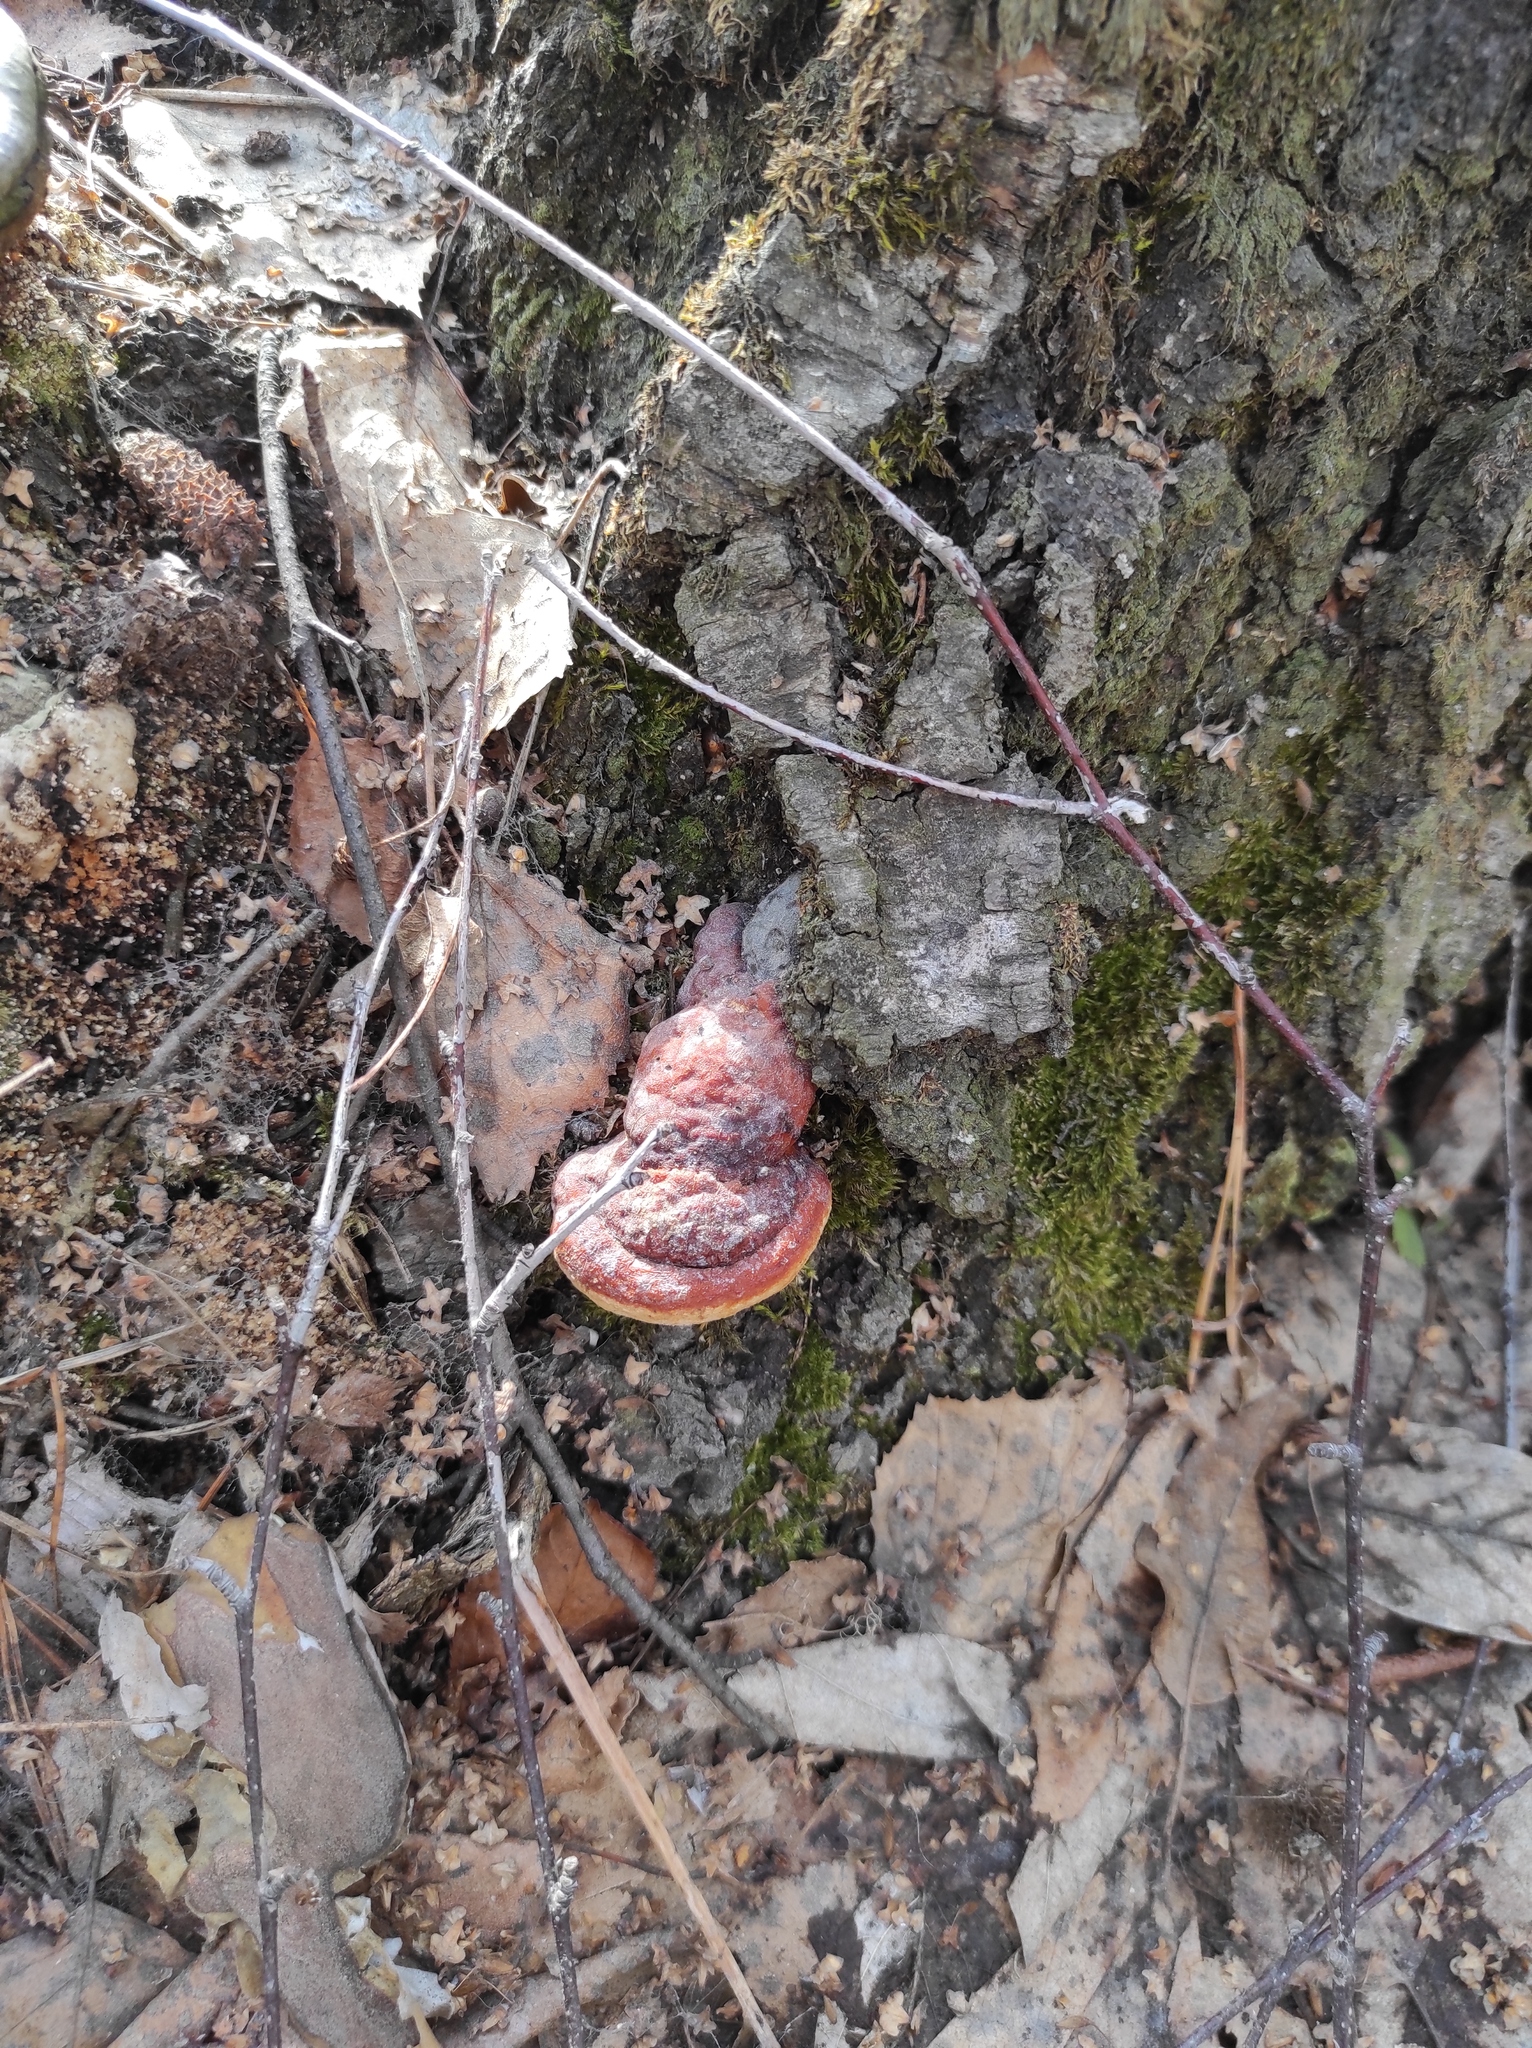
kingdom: Fungi
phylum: Basidiomycota
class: Agaricomycetes
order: Polyporales
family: Fomitopsidaceae
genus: Fomitopsis
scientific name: Fomitopsis pinicola
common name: Red-belted bracket
